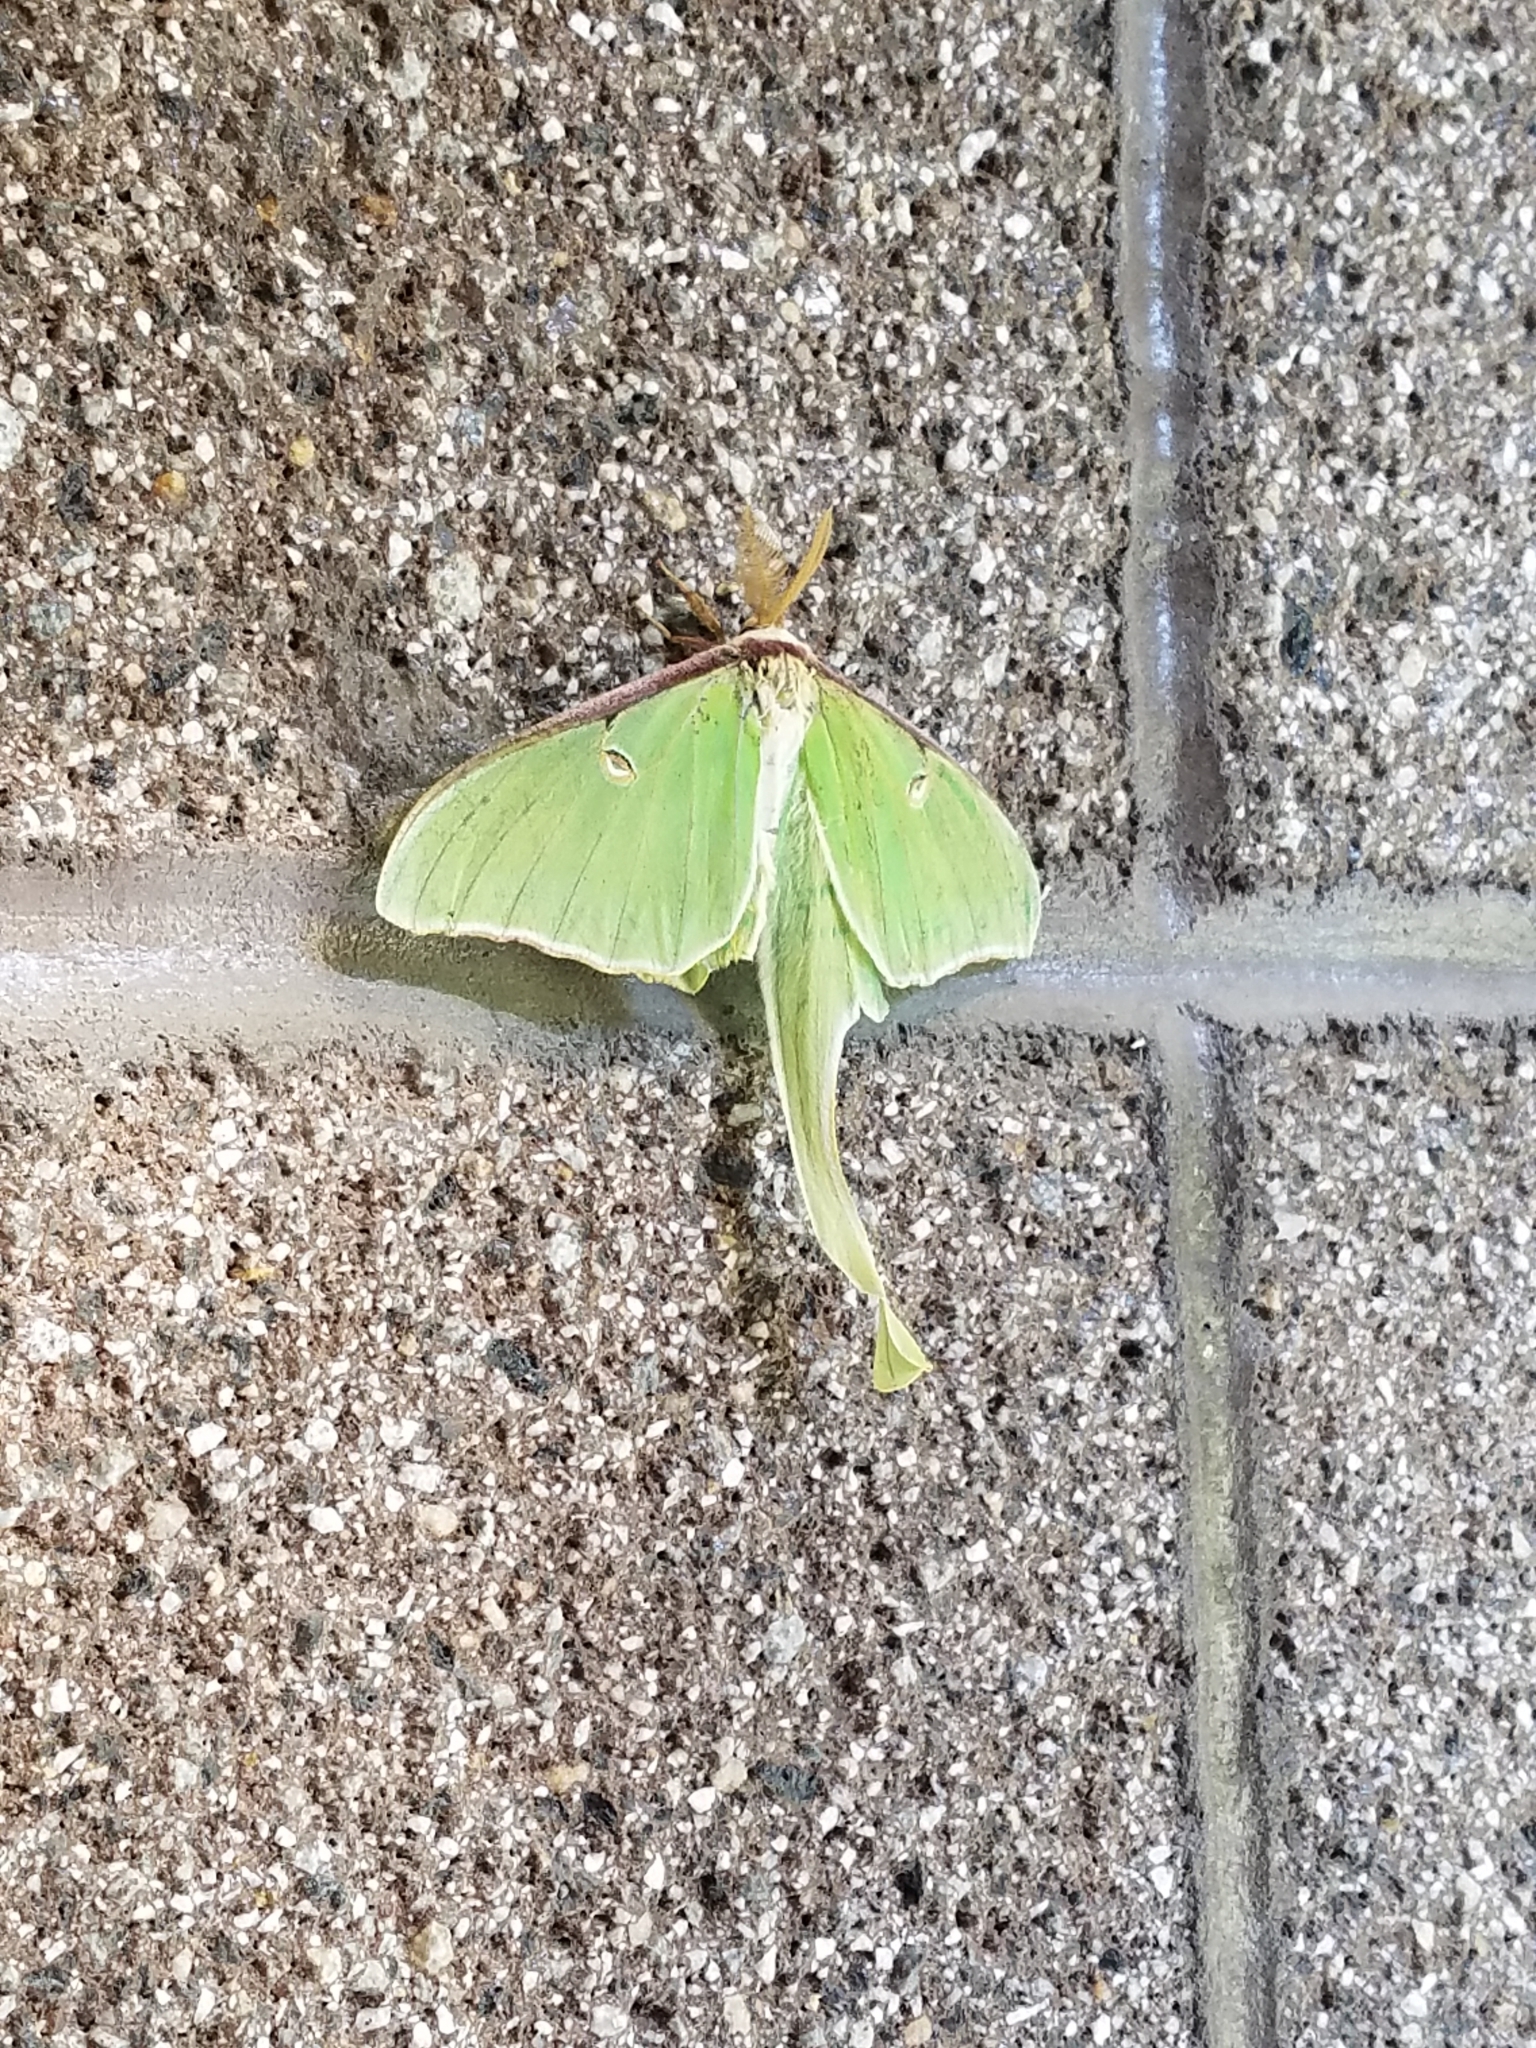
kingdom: Animalia
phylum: Arthropoda
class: Insecta
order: Lepidoptera
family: Saturniidae
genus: Actias
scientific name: Actias luna
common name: Luna moth
